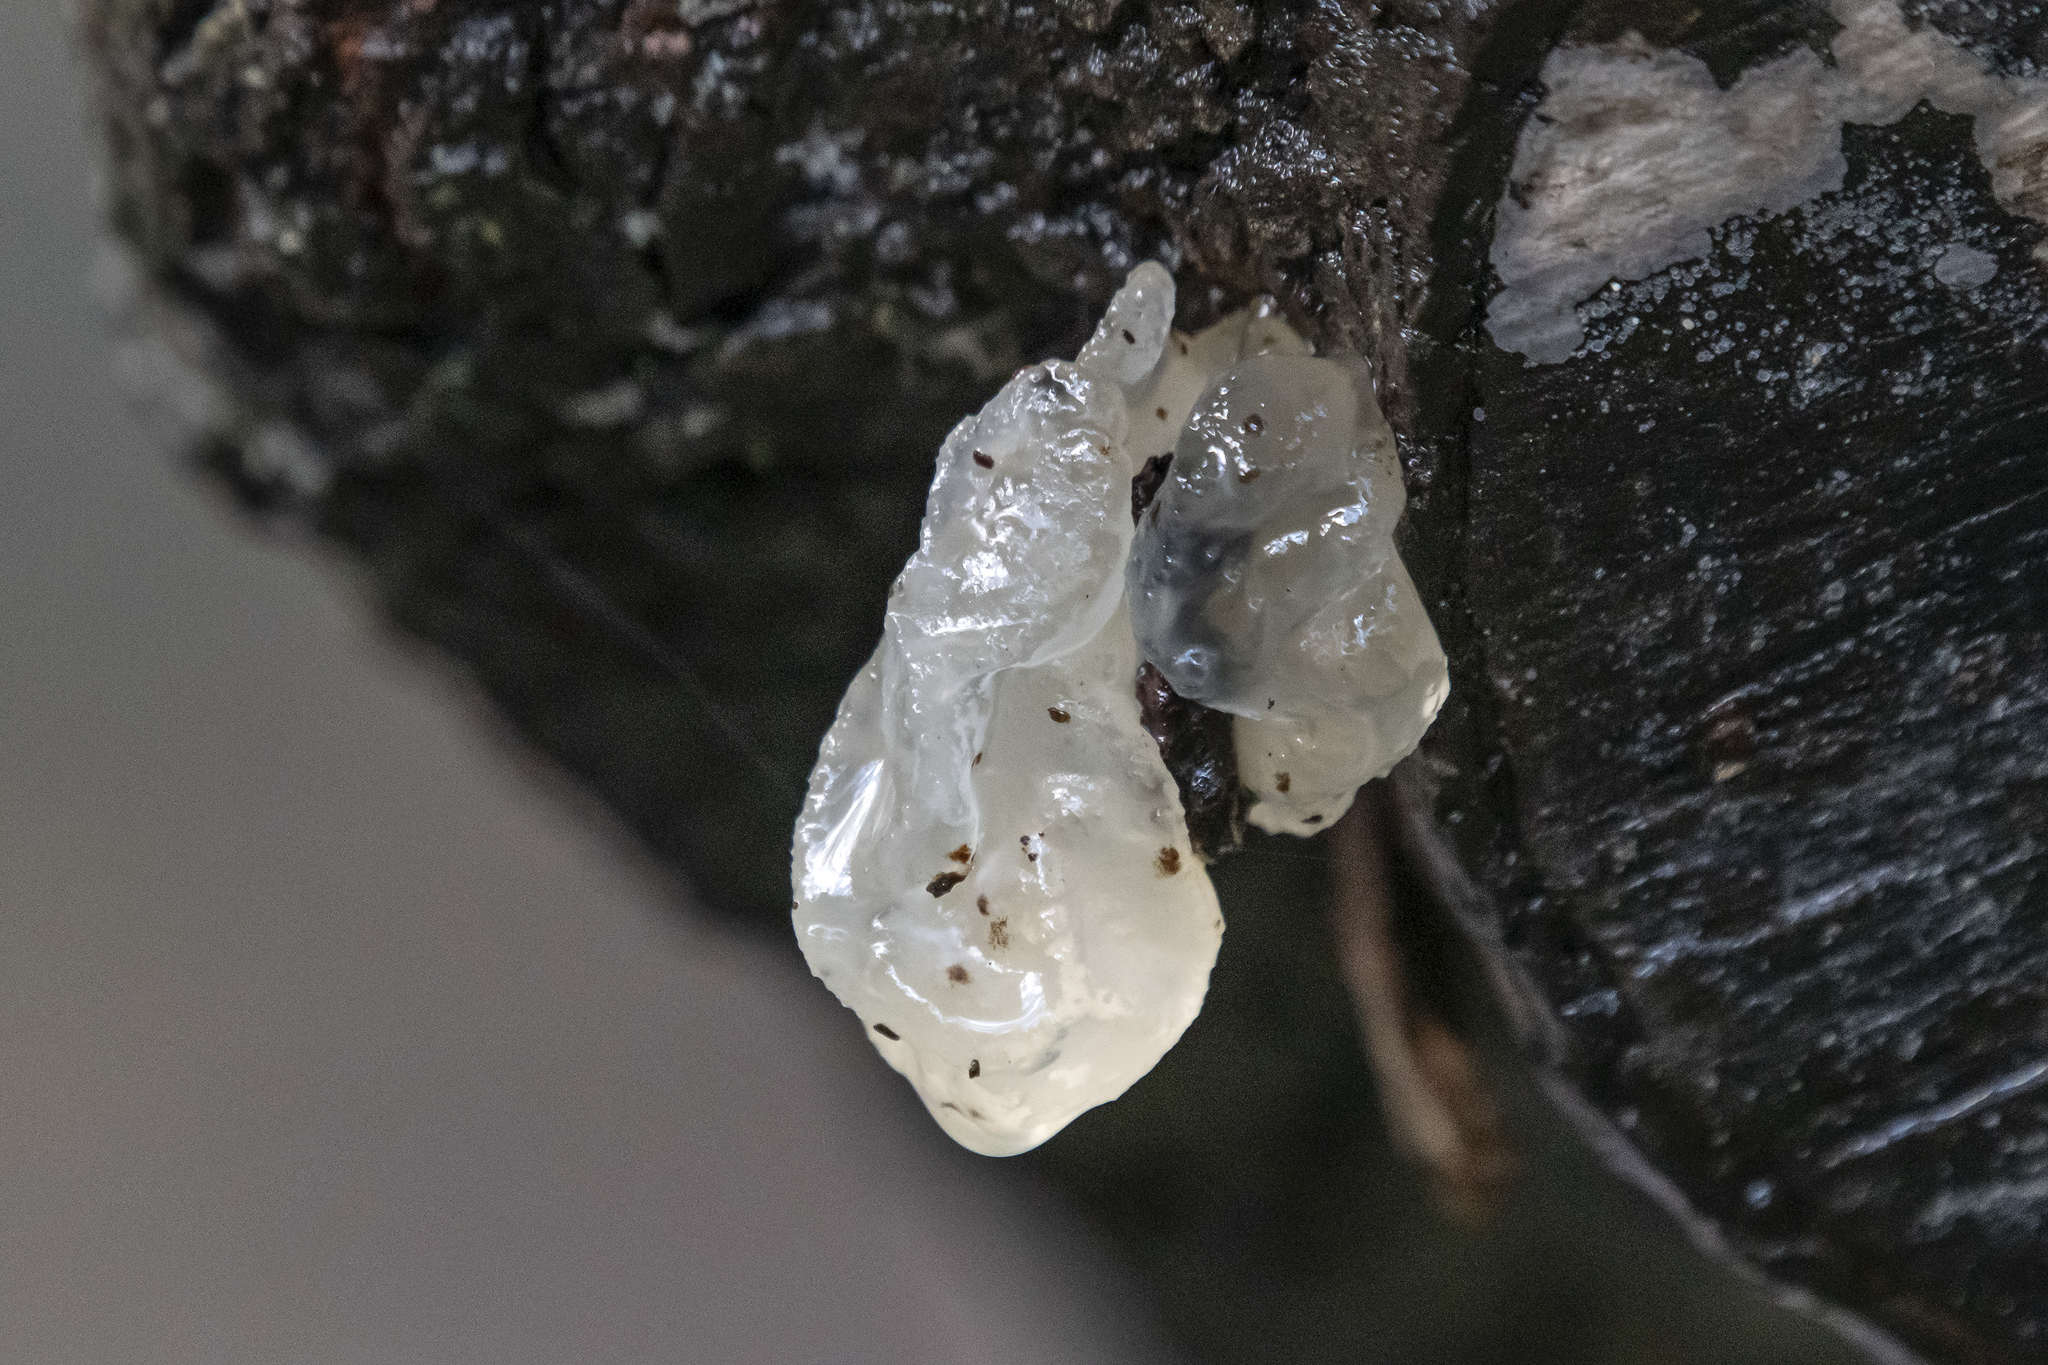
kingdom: Fungi
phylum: Basidiomycota
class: Agaricomycetes
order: Auriculariales
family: Hyaloriaceae
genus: Myxarium
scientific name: Myxarium nucleatum
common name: Crystal brain fungus
